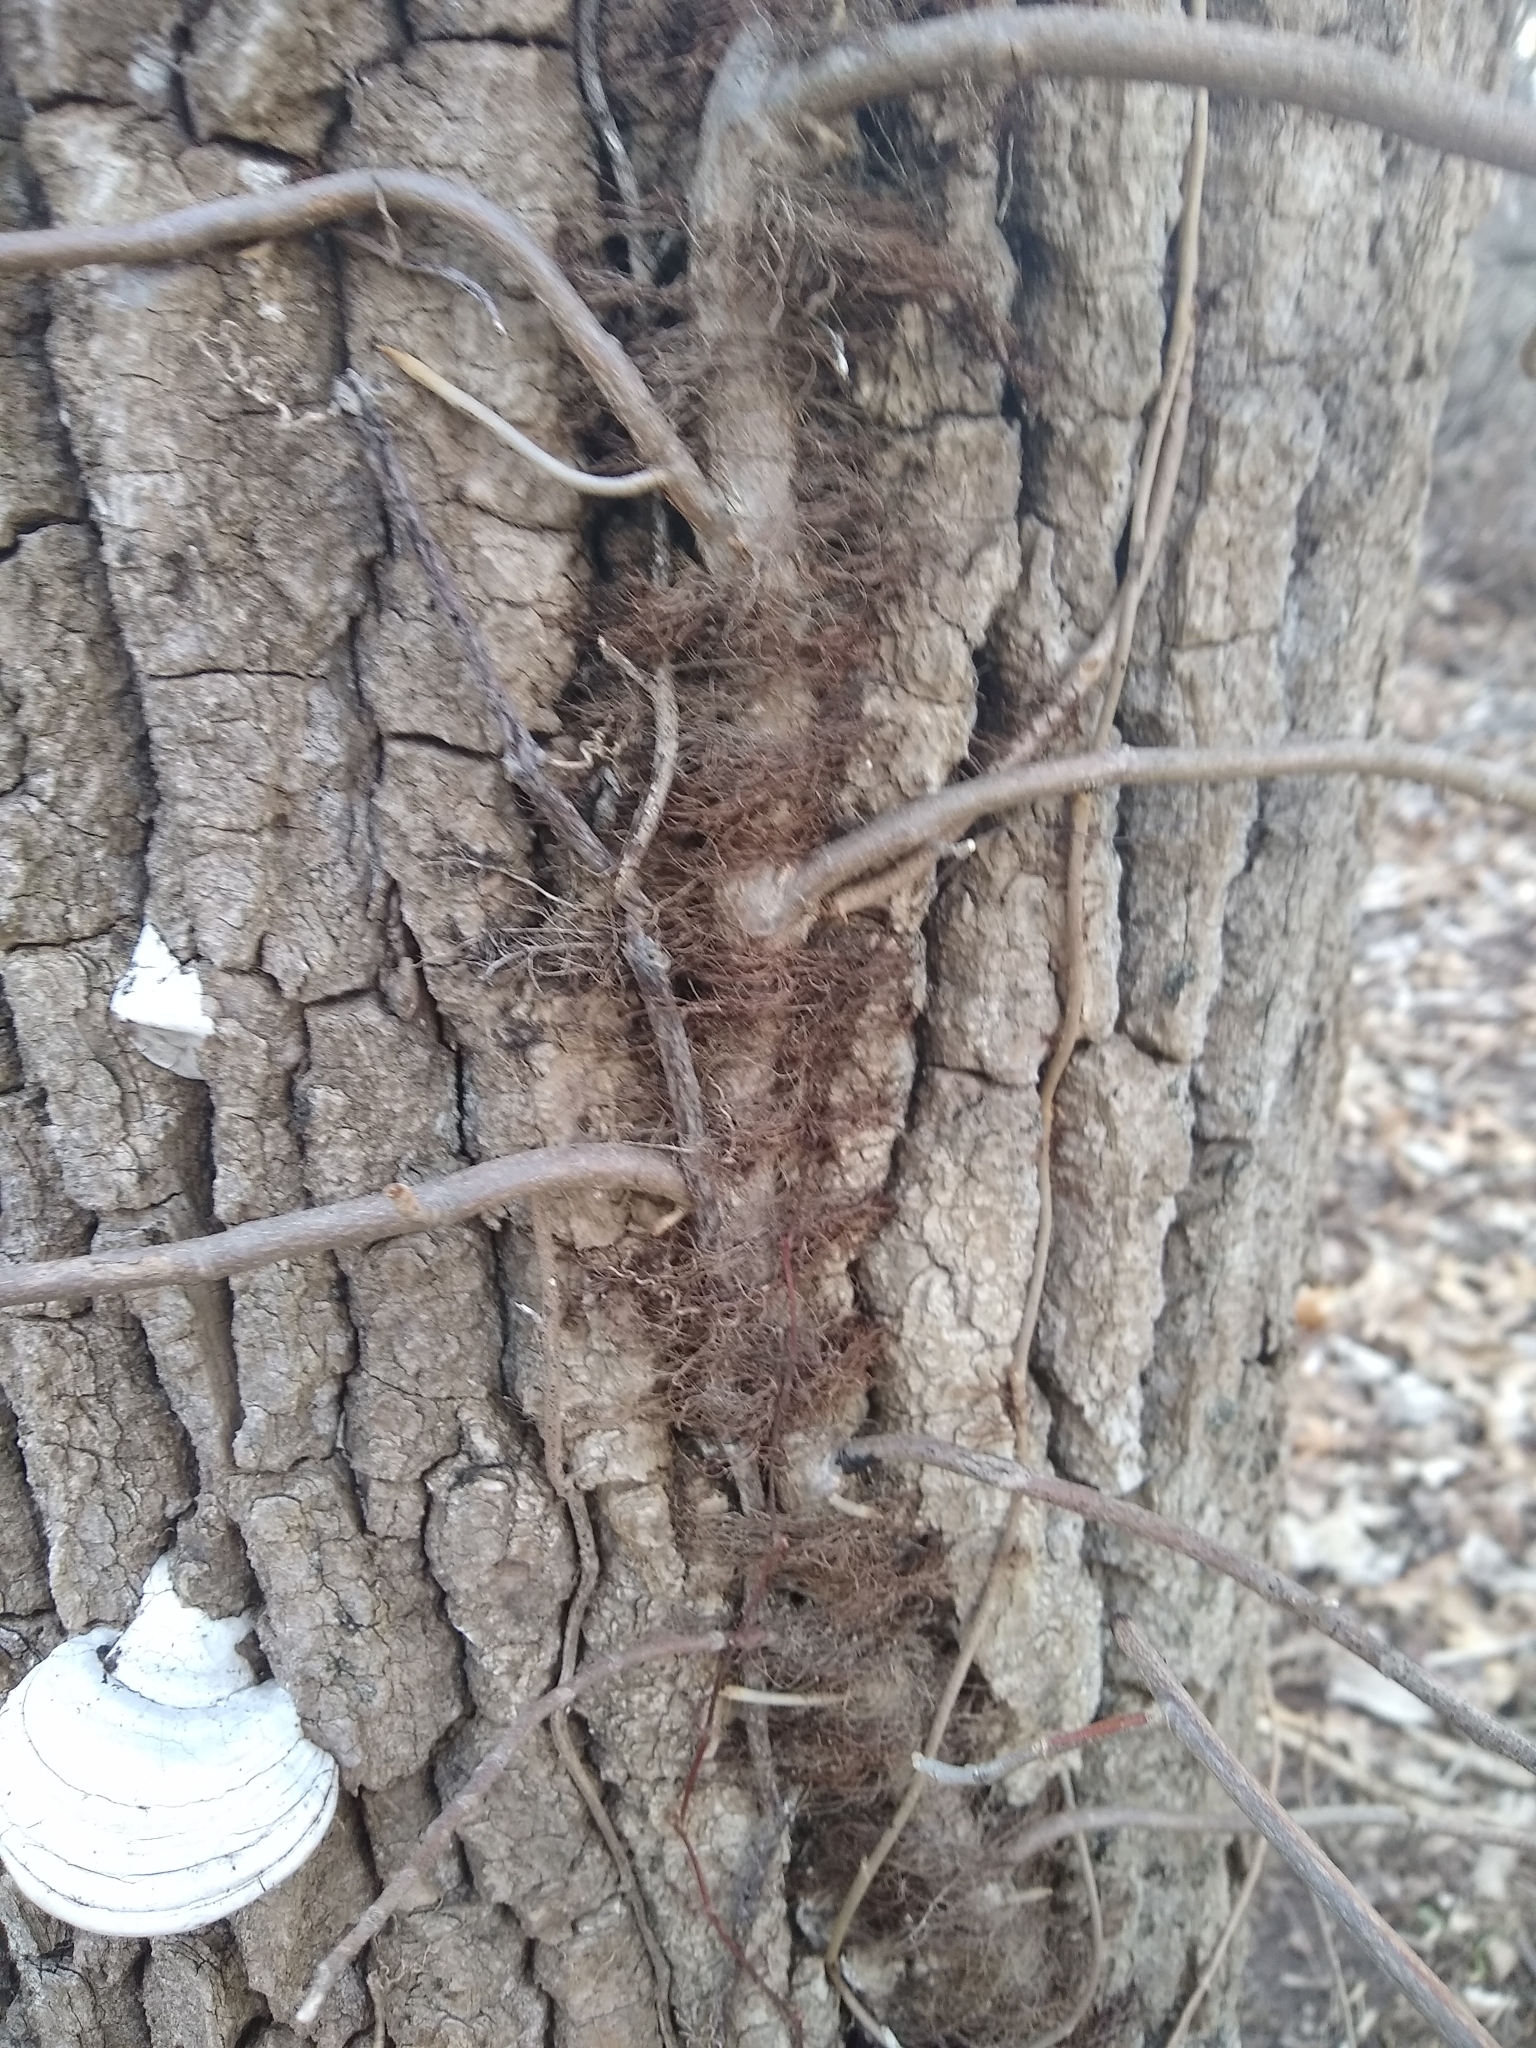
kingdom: Plantae
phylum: Tracheophyta
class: Magnoliopsida
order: Sapindales
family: Anacardiaceae
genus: Toxicodendron
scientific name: Toxicodendron radicans
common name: Poison ivy
